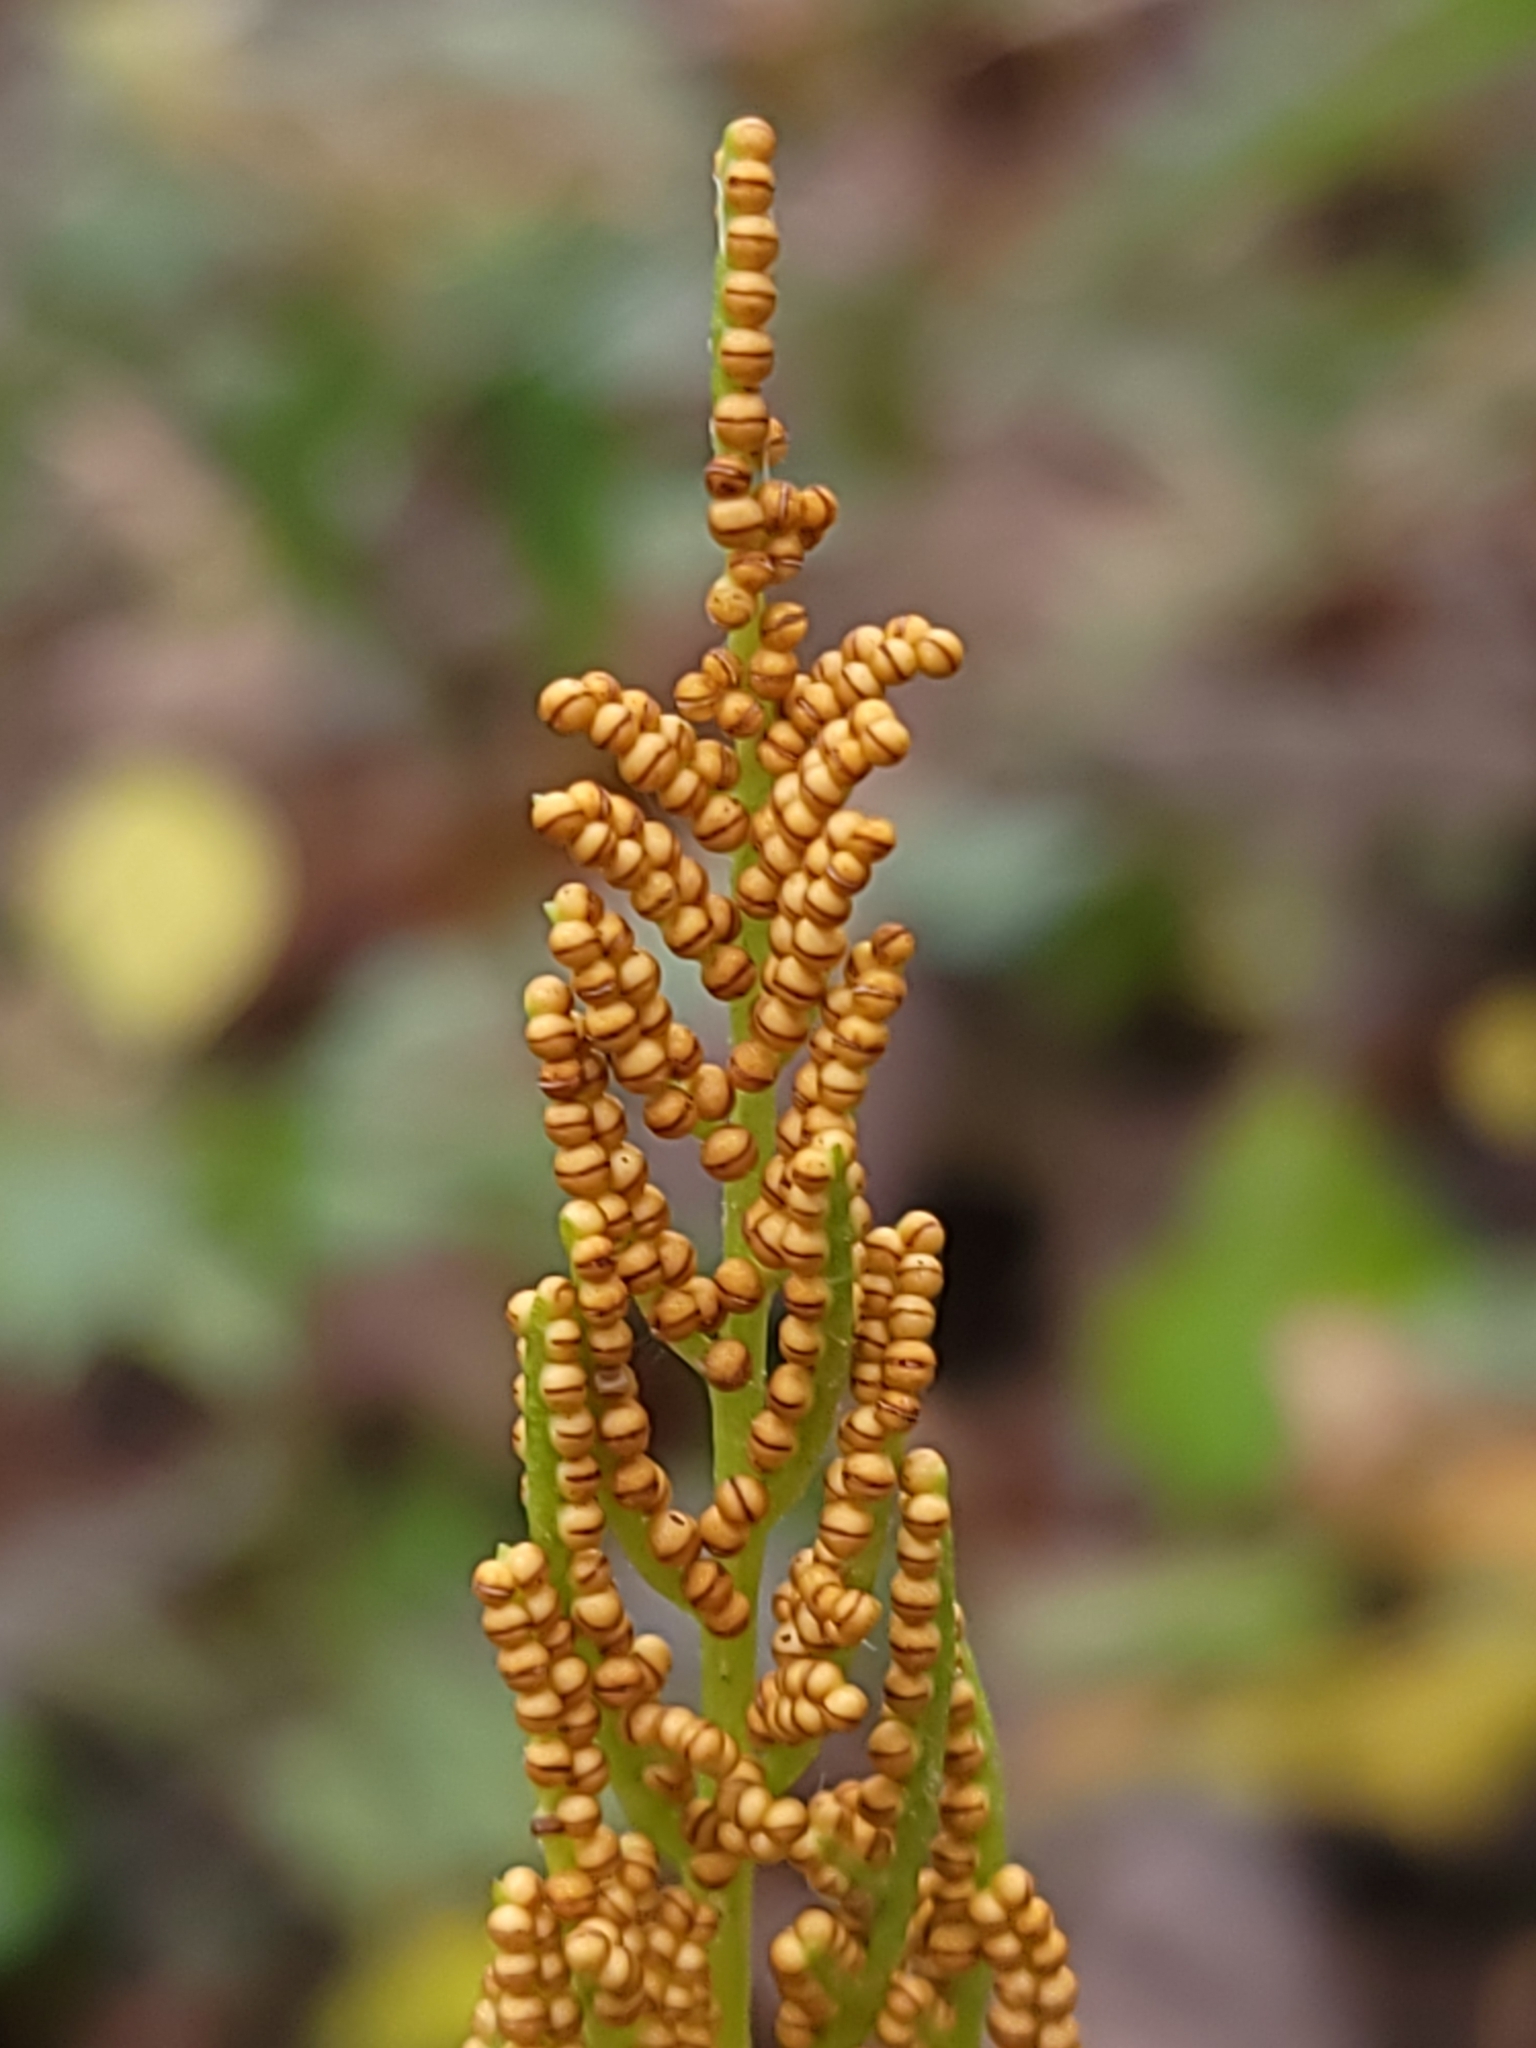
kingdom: Plantae
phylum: Tracheophyta
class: Polypodiopsida
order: Ophioglossales
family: Ophioglossaceae
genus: Sceptridium
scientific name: Sceptridium dissectum
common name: Cut-leaved grapefern
